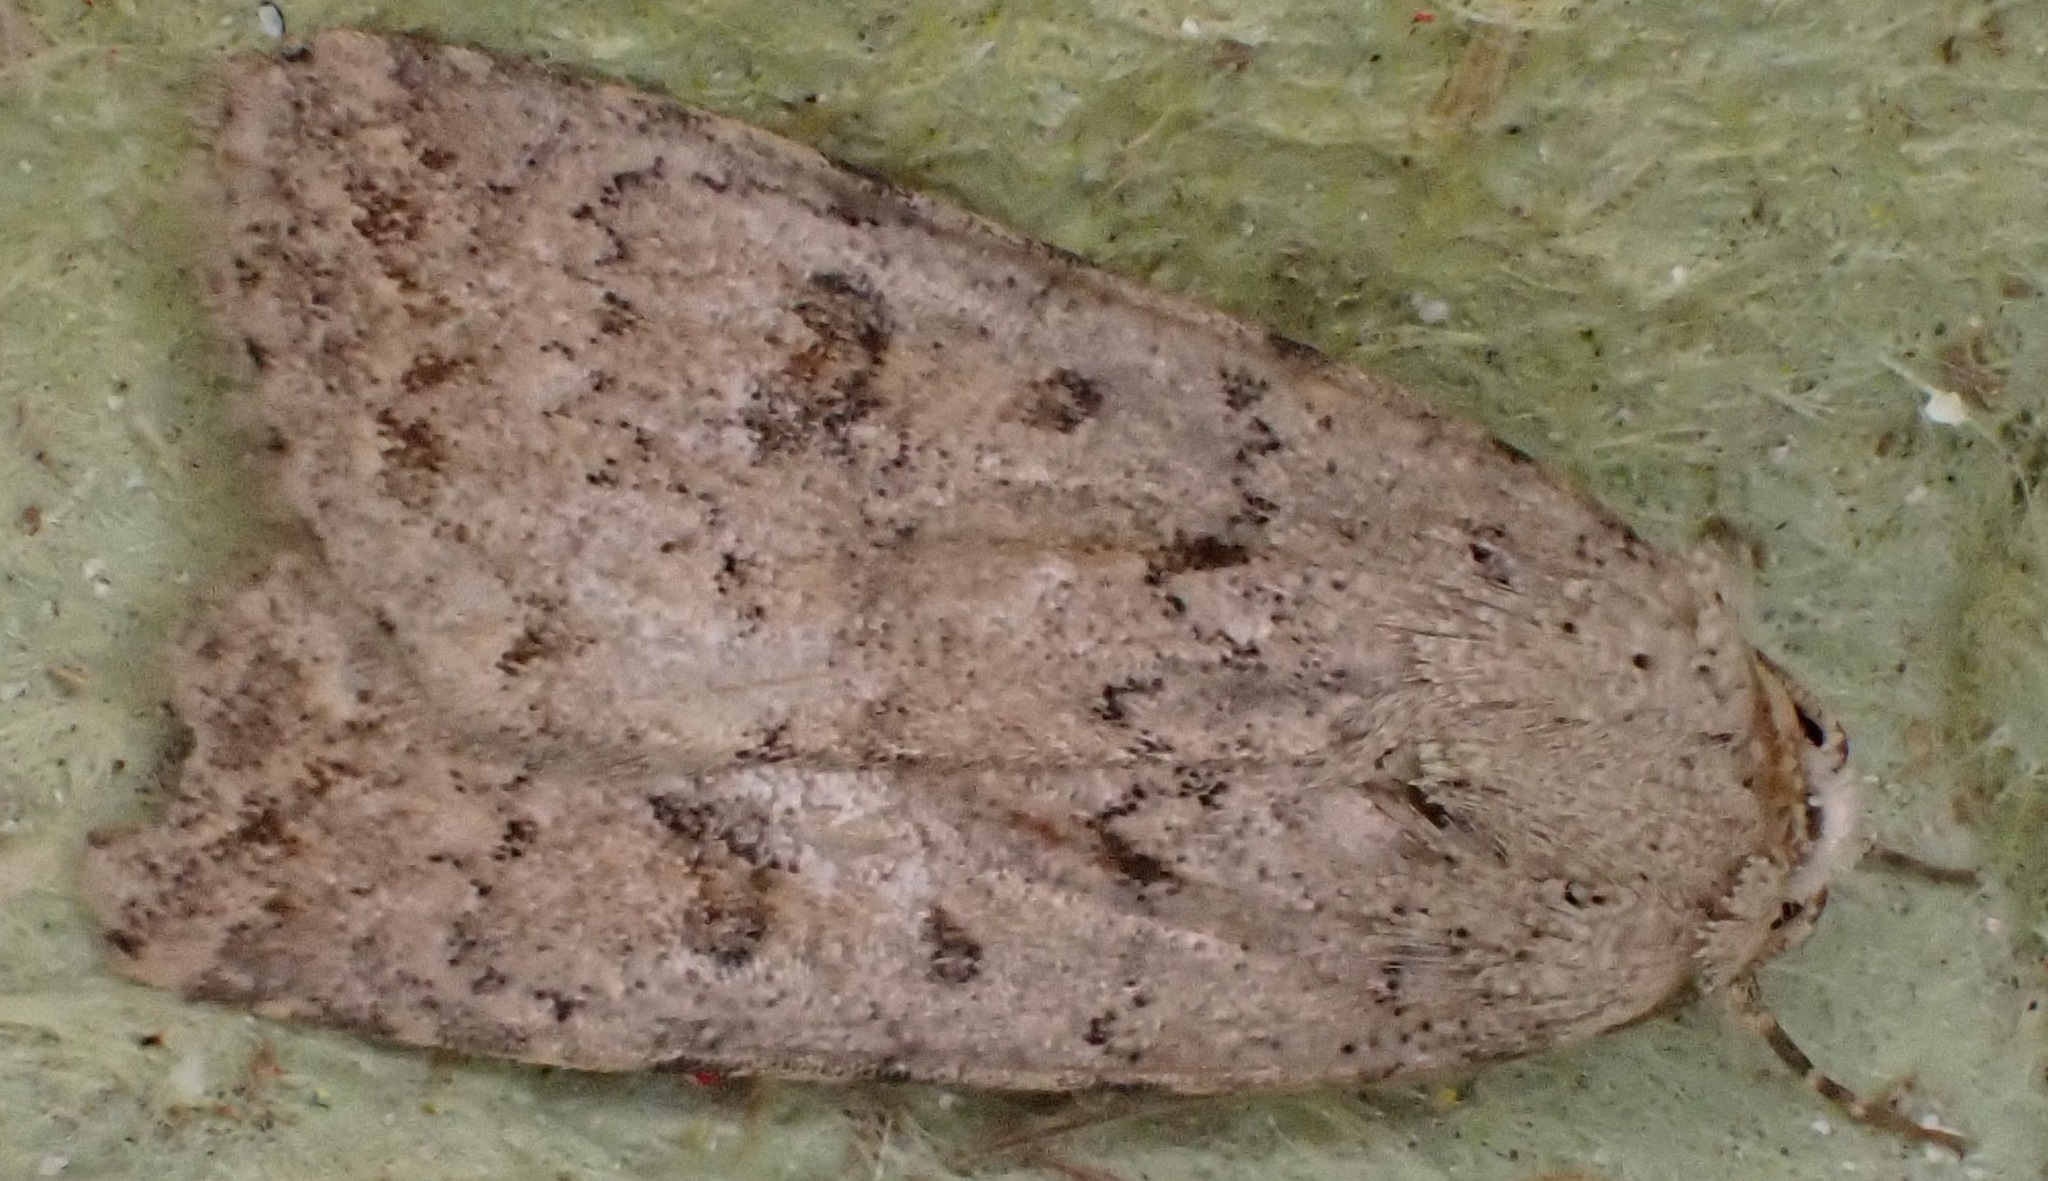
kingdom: Animalia
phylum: Arthropoda
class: Insecta
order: Lepidoptera
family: Noctuidae
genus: Caradrina
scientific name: Caradrina clavipalpis
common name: Pale mottled willow
